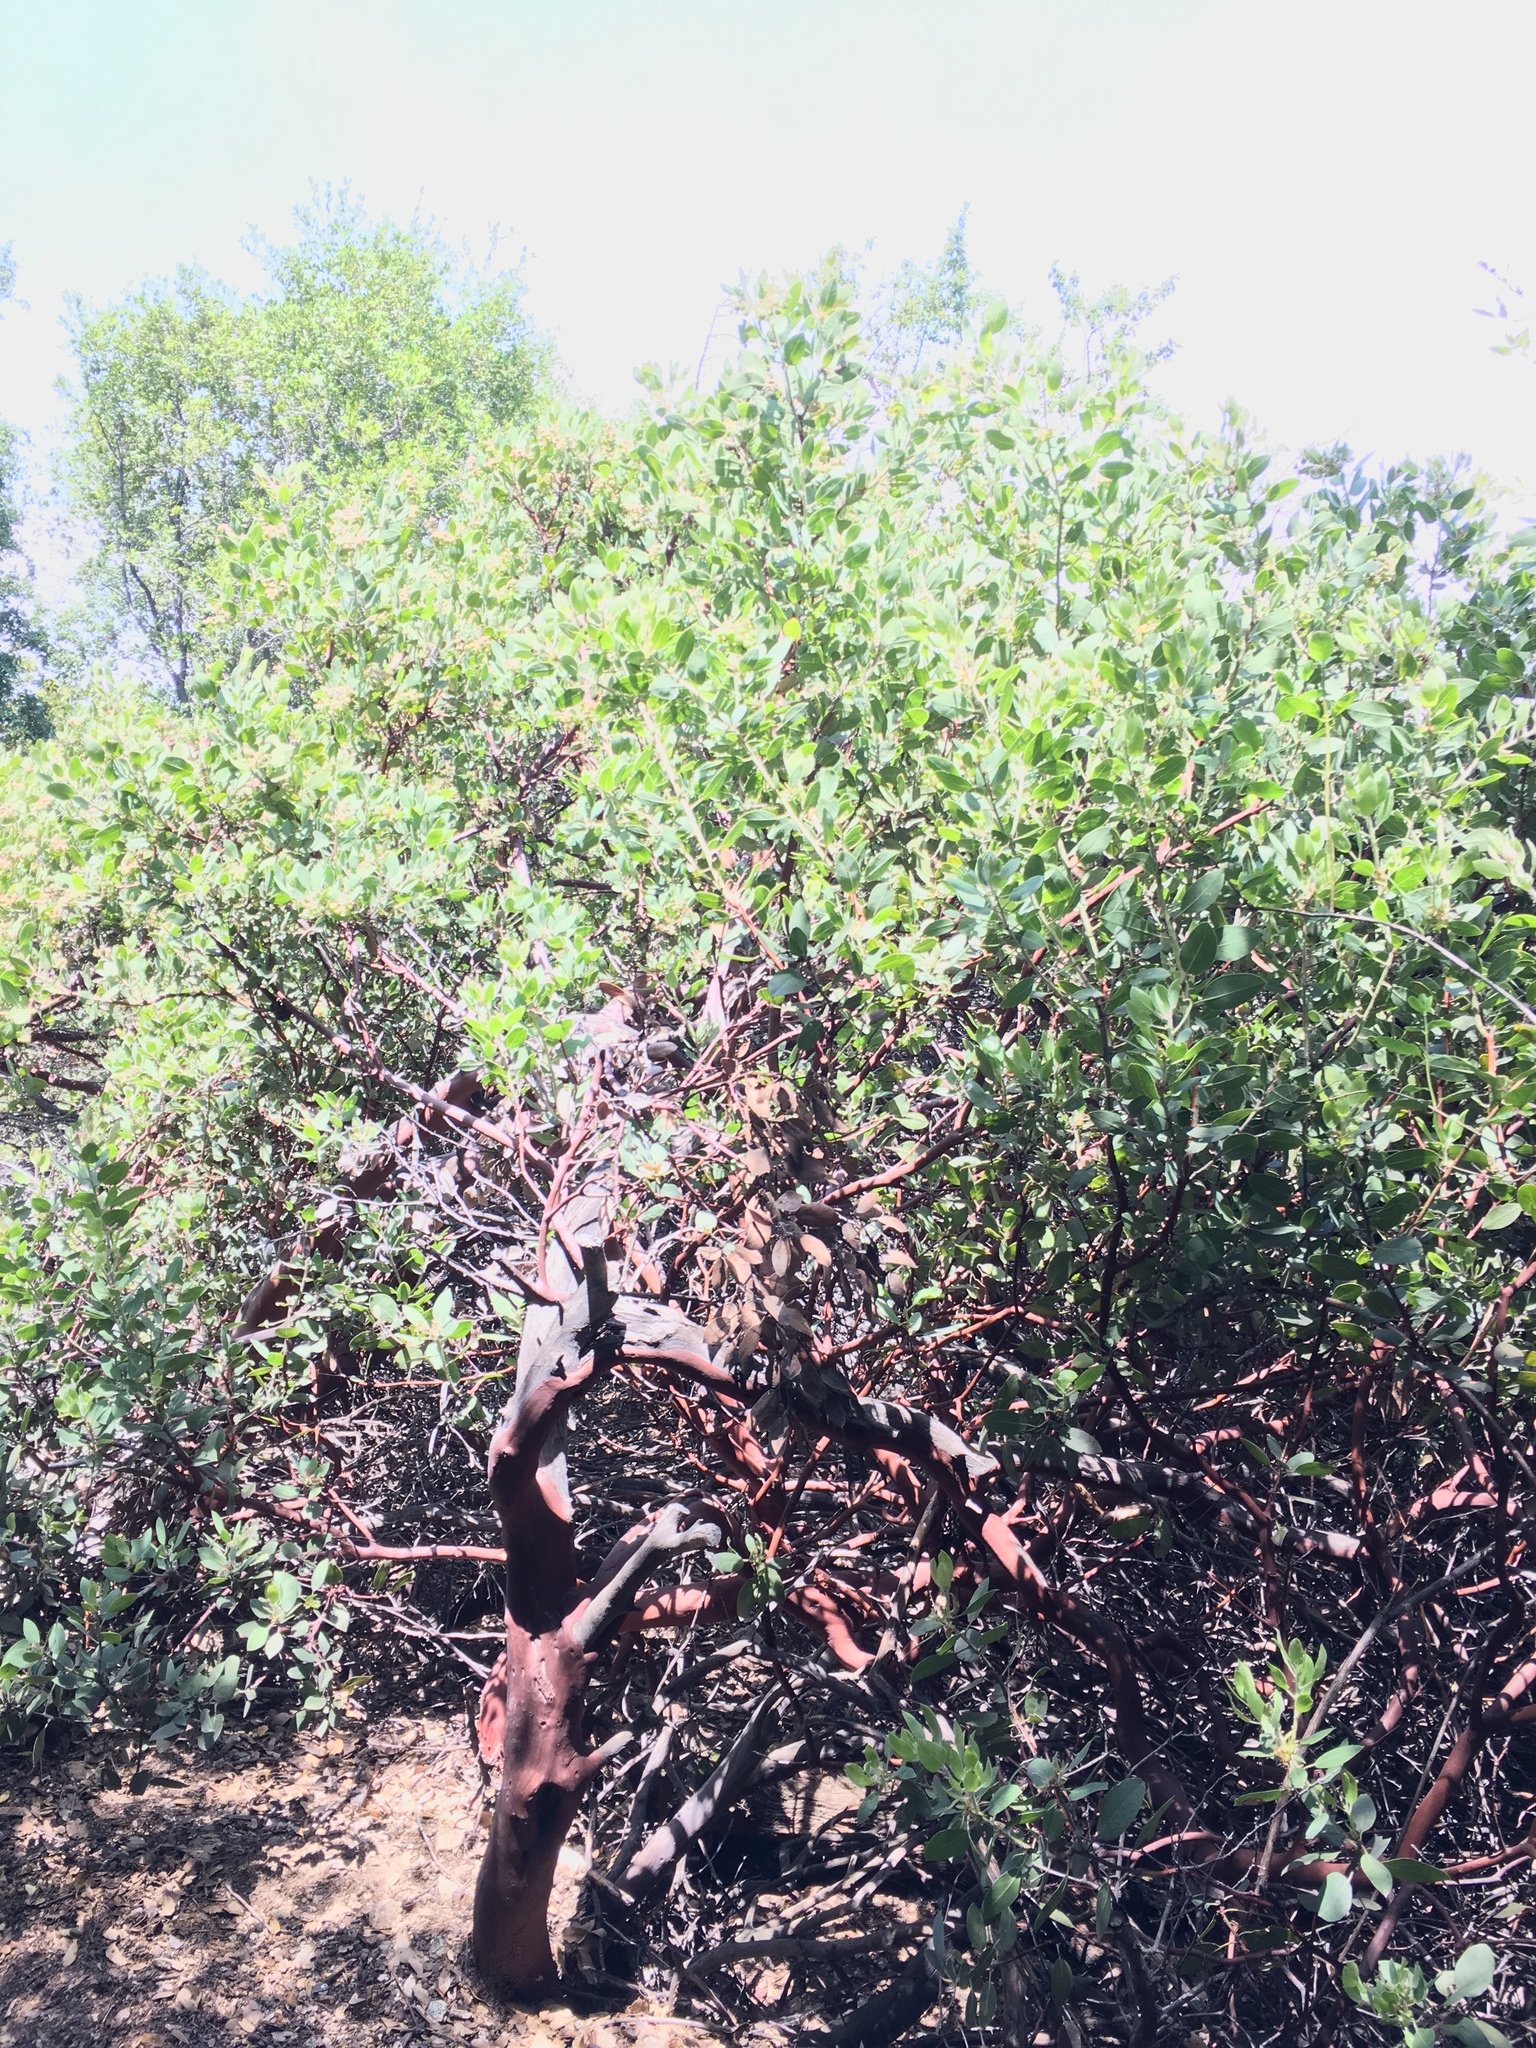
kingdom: Plantae
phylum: Tracheophyta
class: Magnoliopsida
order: Ericales
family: Ericaceae
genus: Arctostaphylos
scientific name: Arctostaphylos glandulosa
